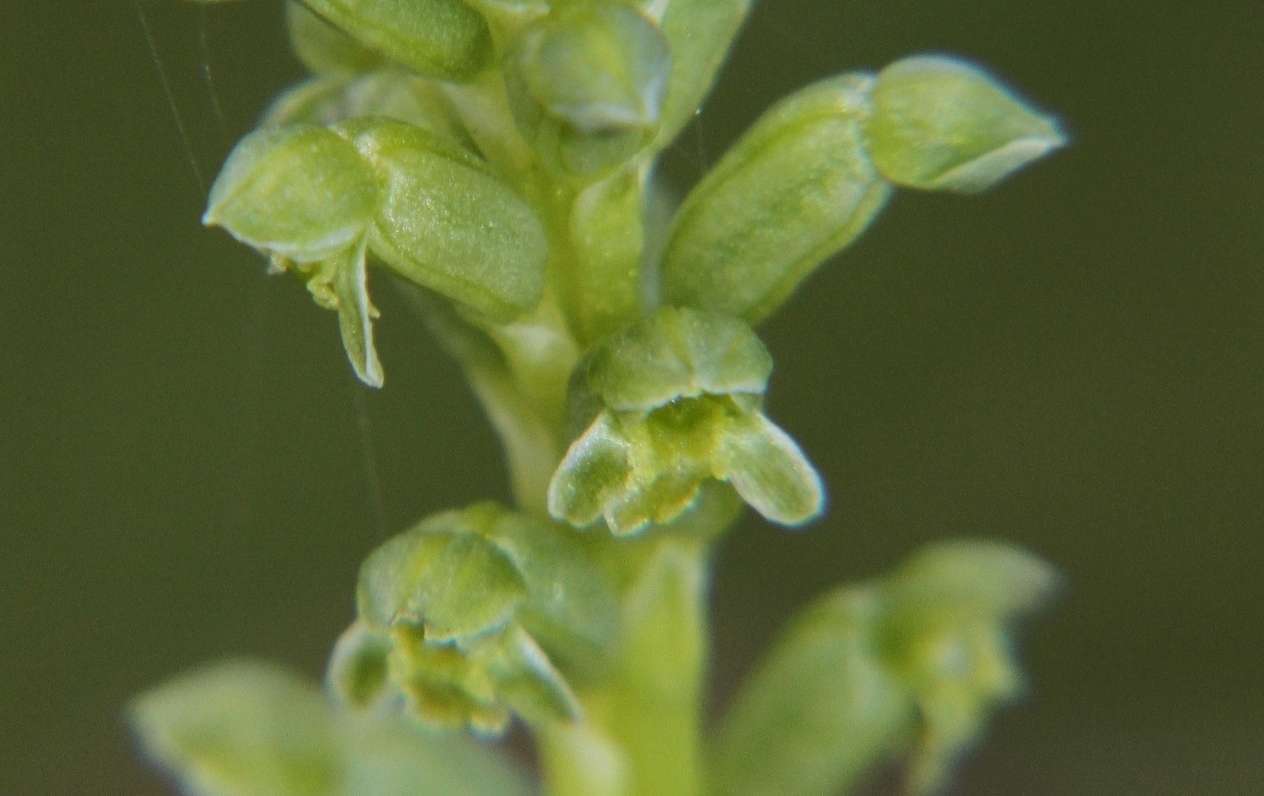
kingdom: Plantae
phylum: Tracheophyta
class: Liliopsida
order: Asparagales
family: Orchidaceae
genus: Microtis
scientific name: Microtis unifolia
